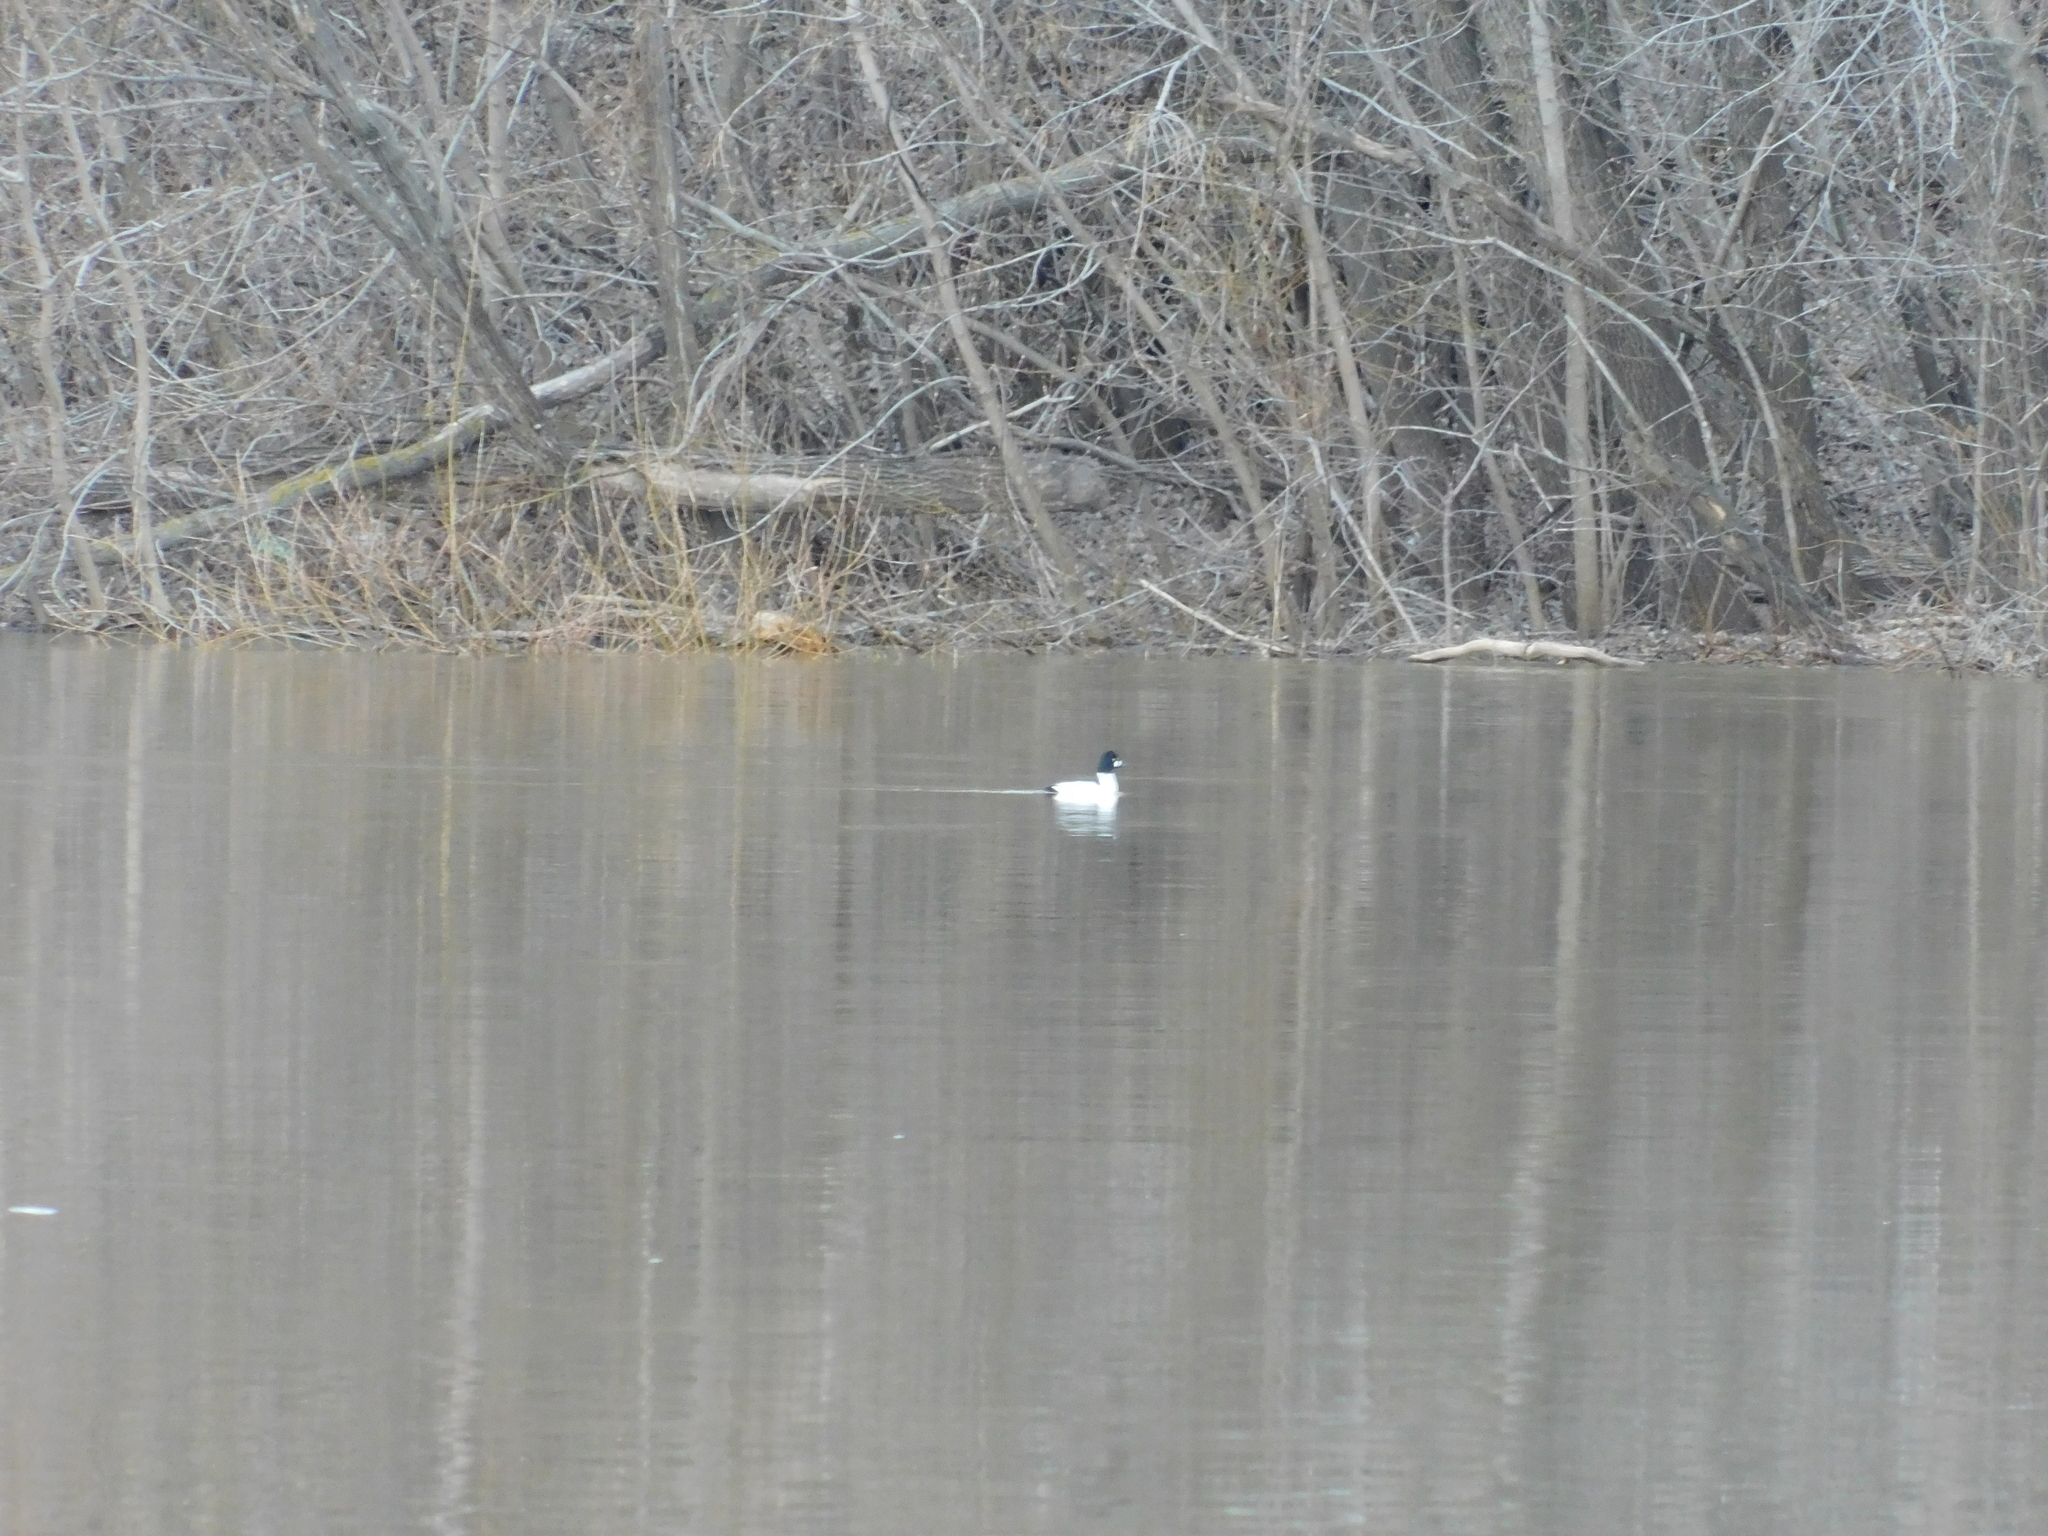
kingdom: Animalia
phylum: Chordata
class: Aves
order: Anseriformes
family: Anatidae
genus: Bucephala
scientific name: Bucephala clangula
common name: Common goldeneye
